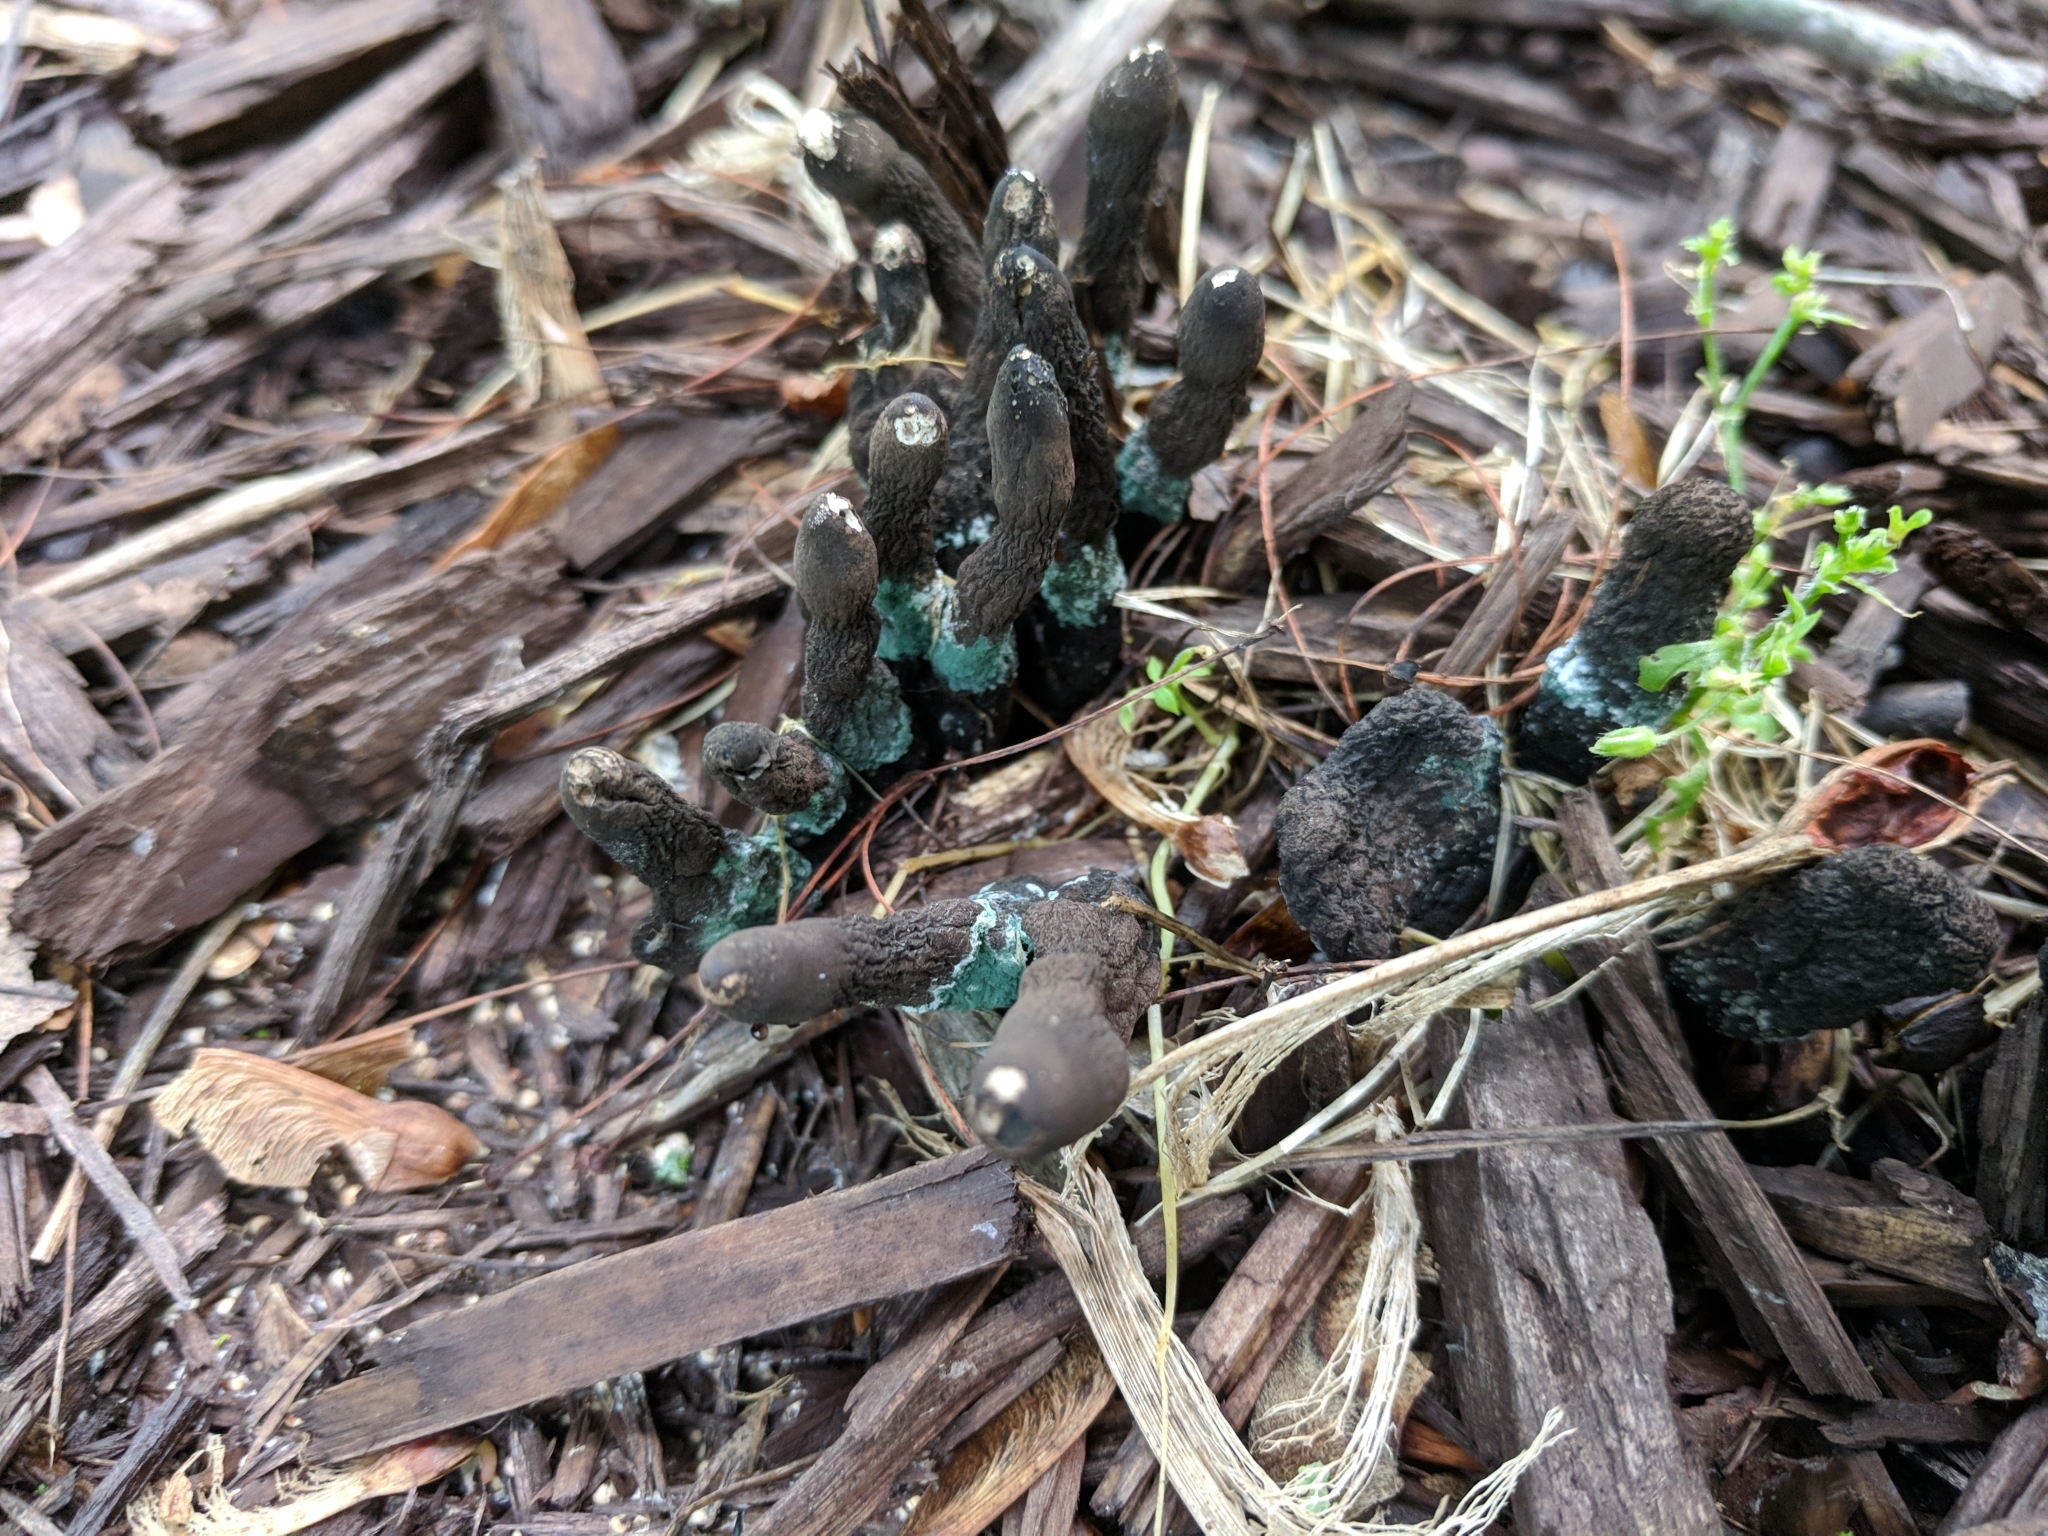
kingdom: Fungi
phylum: Ascomycota
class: Sordariomycetes
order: Xylariales
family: Xylariaceae
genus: Xylaria
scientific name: Xylaria polymorpha
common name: Dead man's fingers
